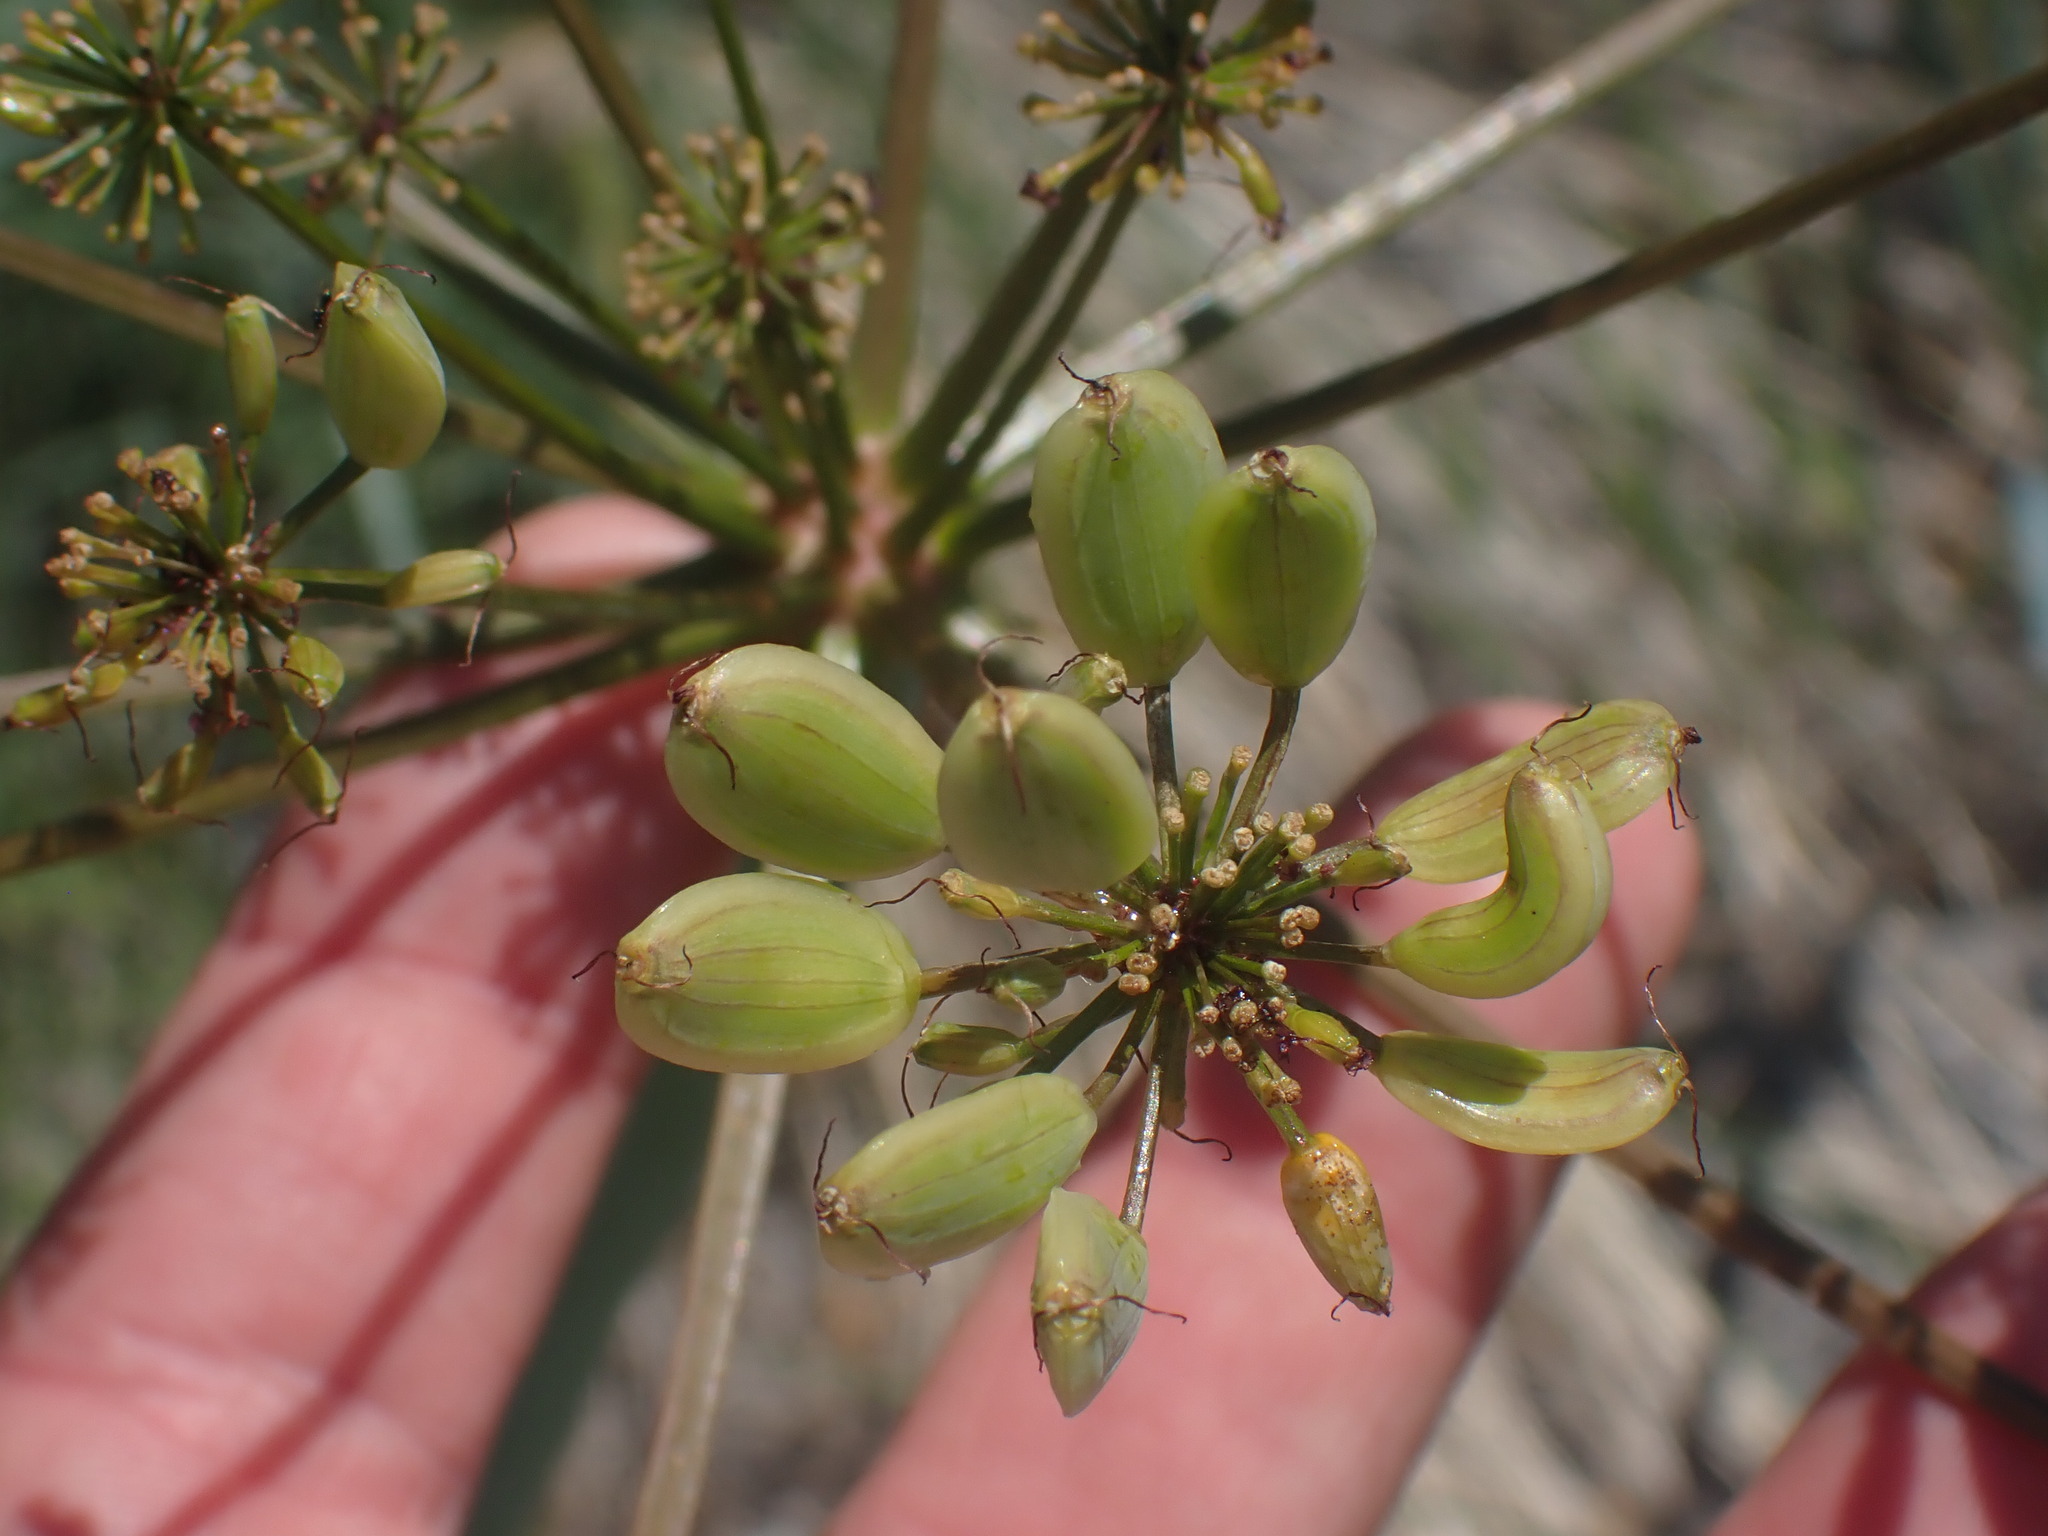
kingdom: Plantae
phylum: Tracheophyta
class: Magnoliopsida
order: Apiales
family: Apiaceae
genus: Lomatium
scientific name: Lomatium multifidum
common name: Carrot-leaved biscuitroot
